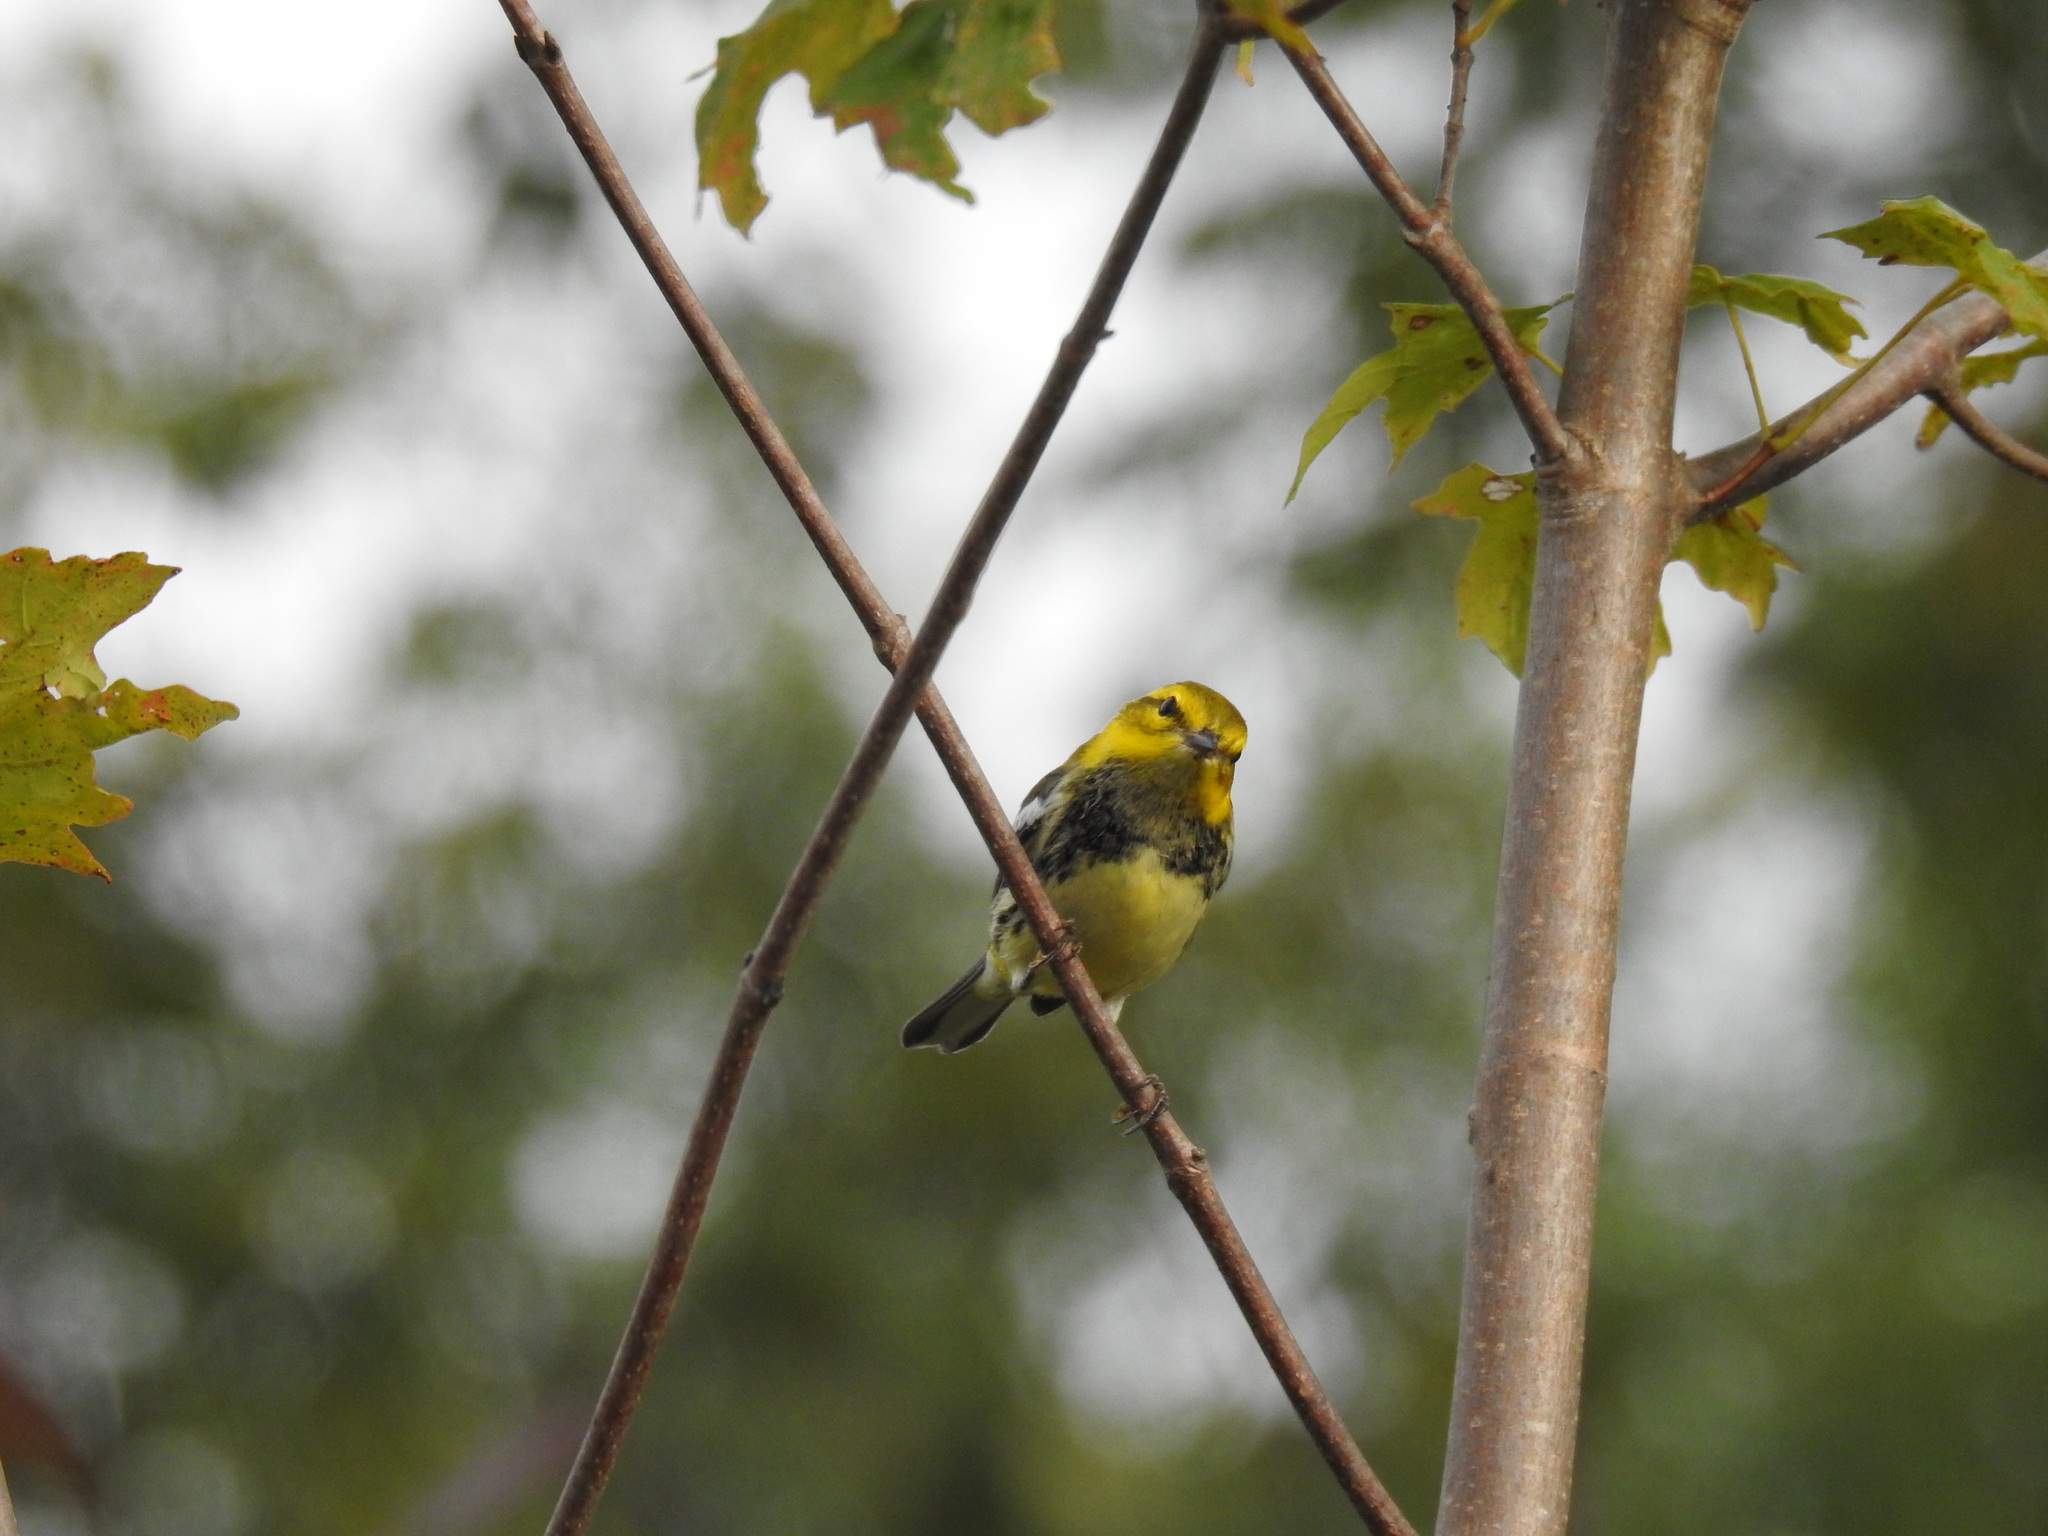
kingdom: Animalia
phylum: Chordata
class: Aves
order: Passeriformes
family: Parulidae
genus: Setophaga
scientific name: Setophaga virens
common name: Black-throated green warbler
